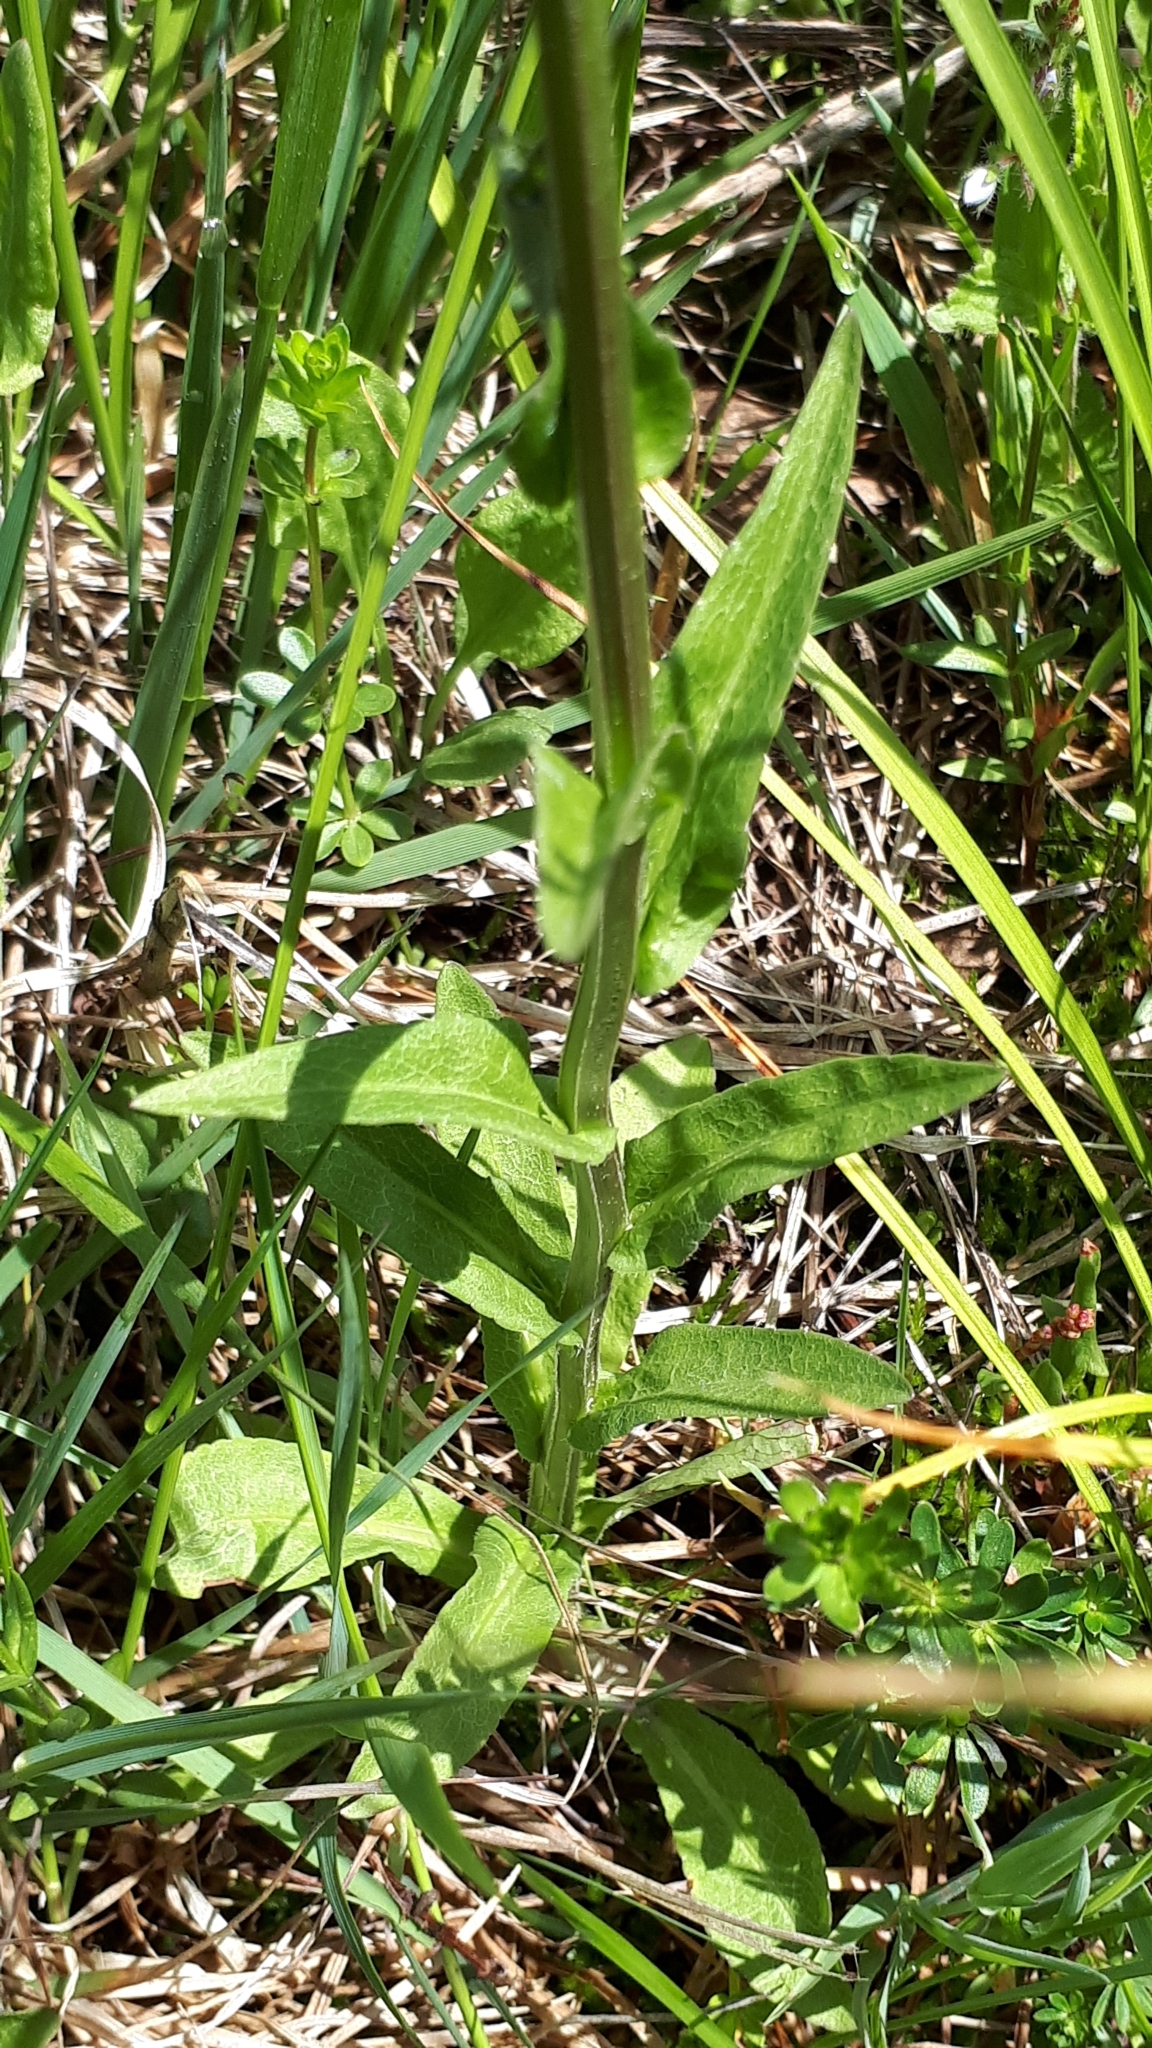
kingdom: Plantae
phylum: Tracheophyta
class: Magnoliopsida
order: Asterales
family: Campanulaceae
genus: Campanula
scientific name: Campanula patula
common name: Spreading bellflower
